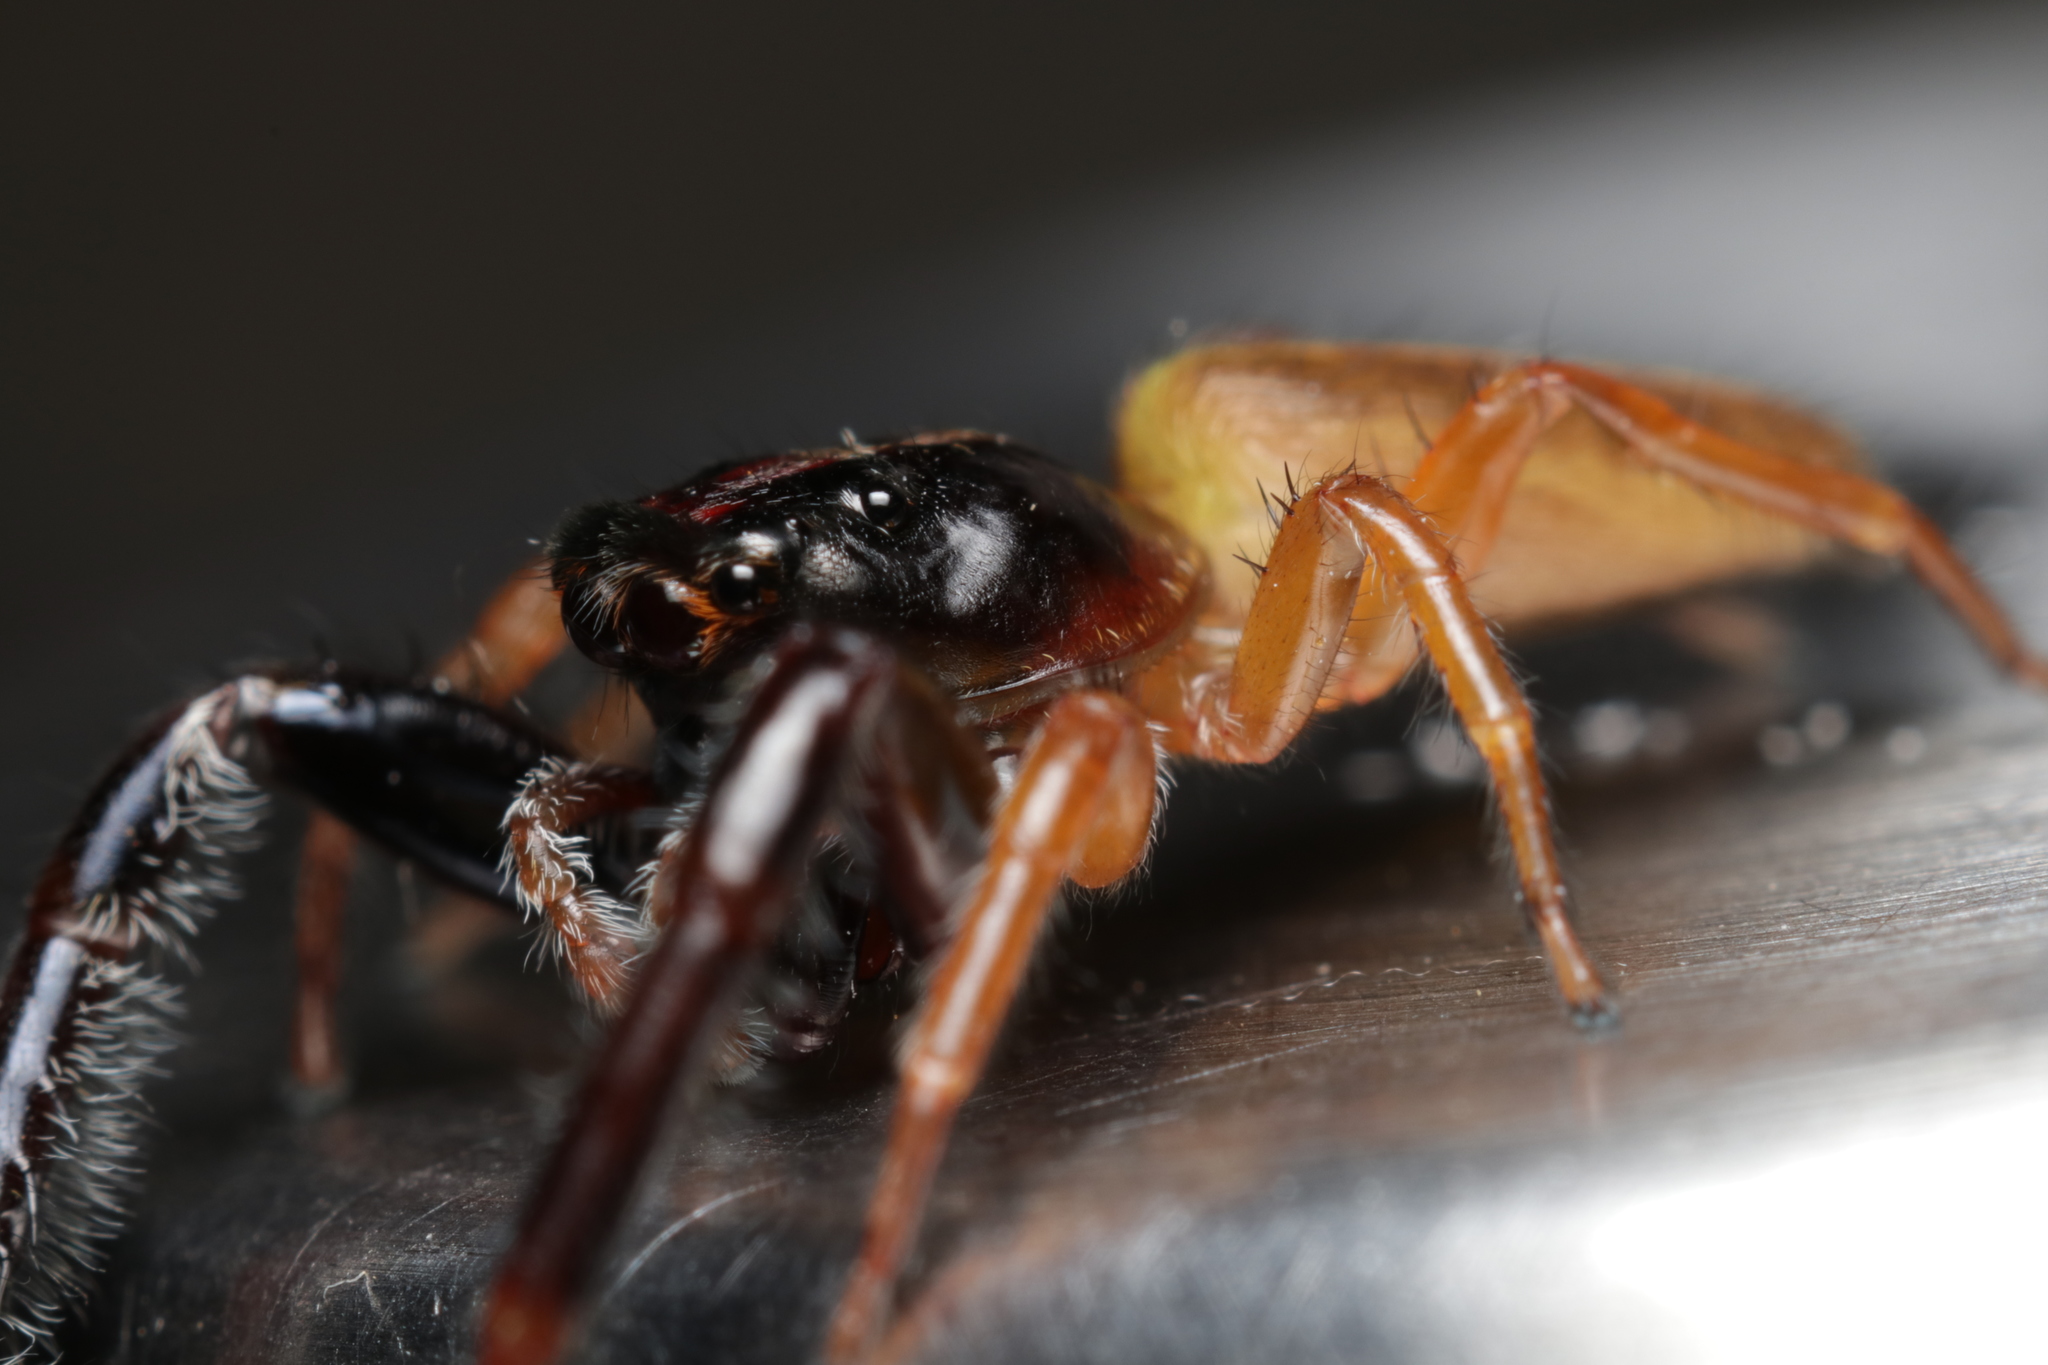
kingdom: Animalia
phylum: Arthropoda
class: Arachnida
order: Araneae
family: Salticidae
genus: Trite
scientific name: Trite planiceps
